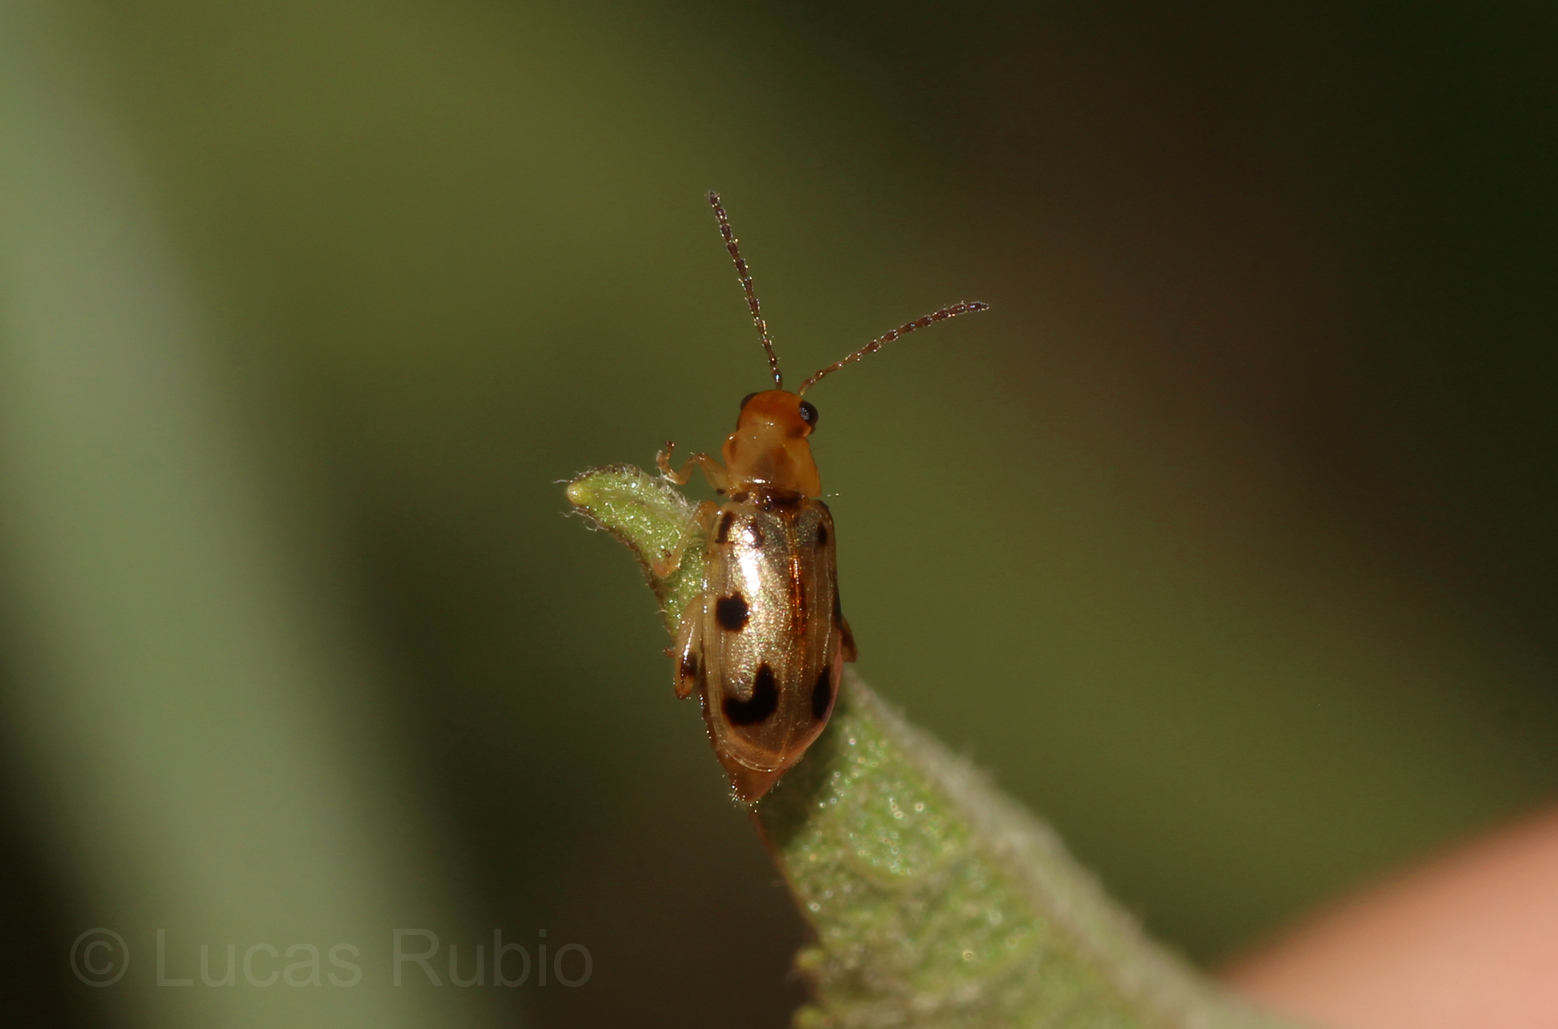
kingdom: Animalia
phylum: Arthropoda
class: Insecta
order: Coleoptera
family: Chrysomelidae
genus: Systena
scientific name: Systena
